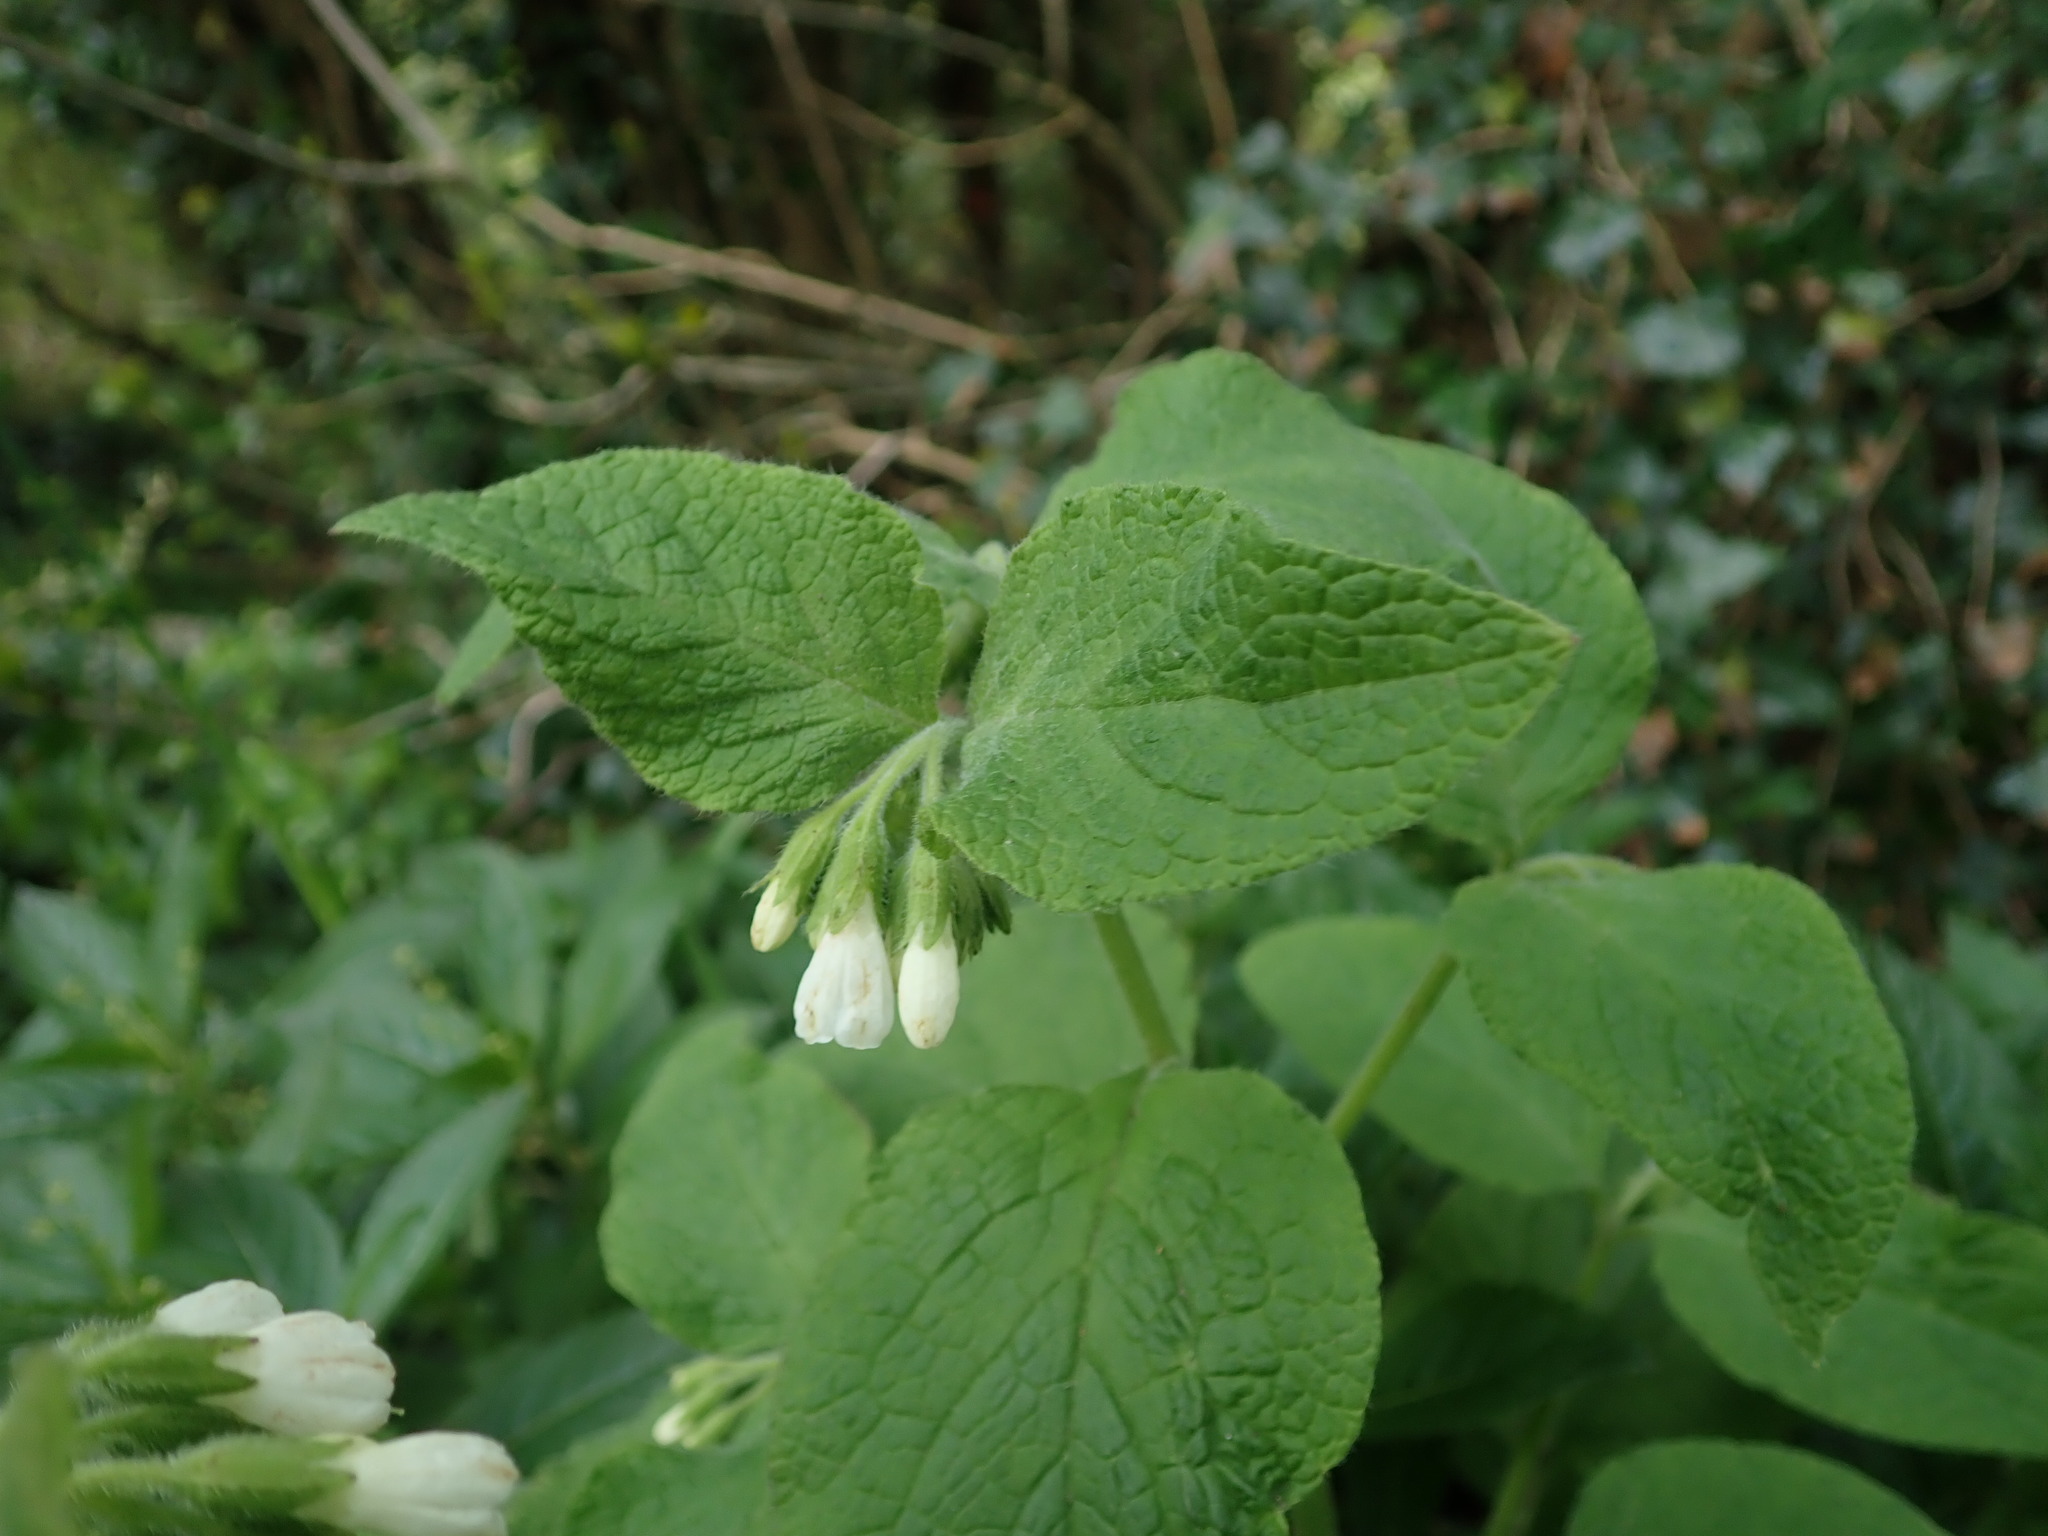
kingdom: Plantae
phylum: Tracheophyta
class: Magnoliopsida
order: Boraginales
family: Boraginaceae
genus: Symphytum
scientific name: Symphytum orientale
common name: White comfrey
